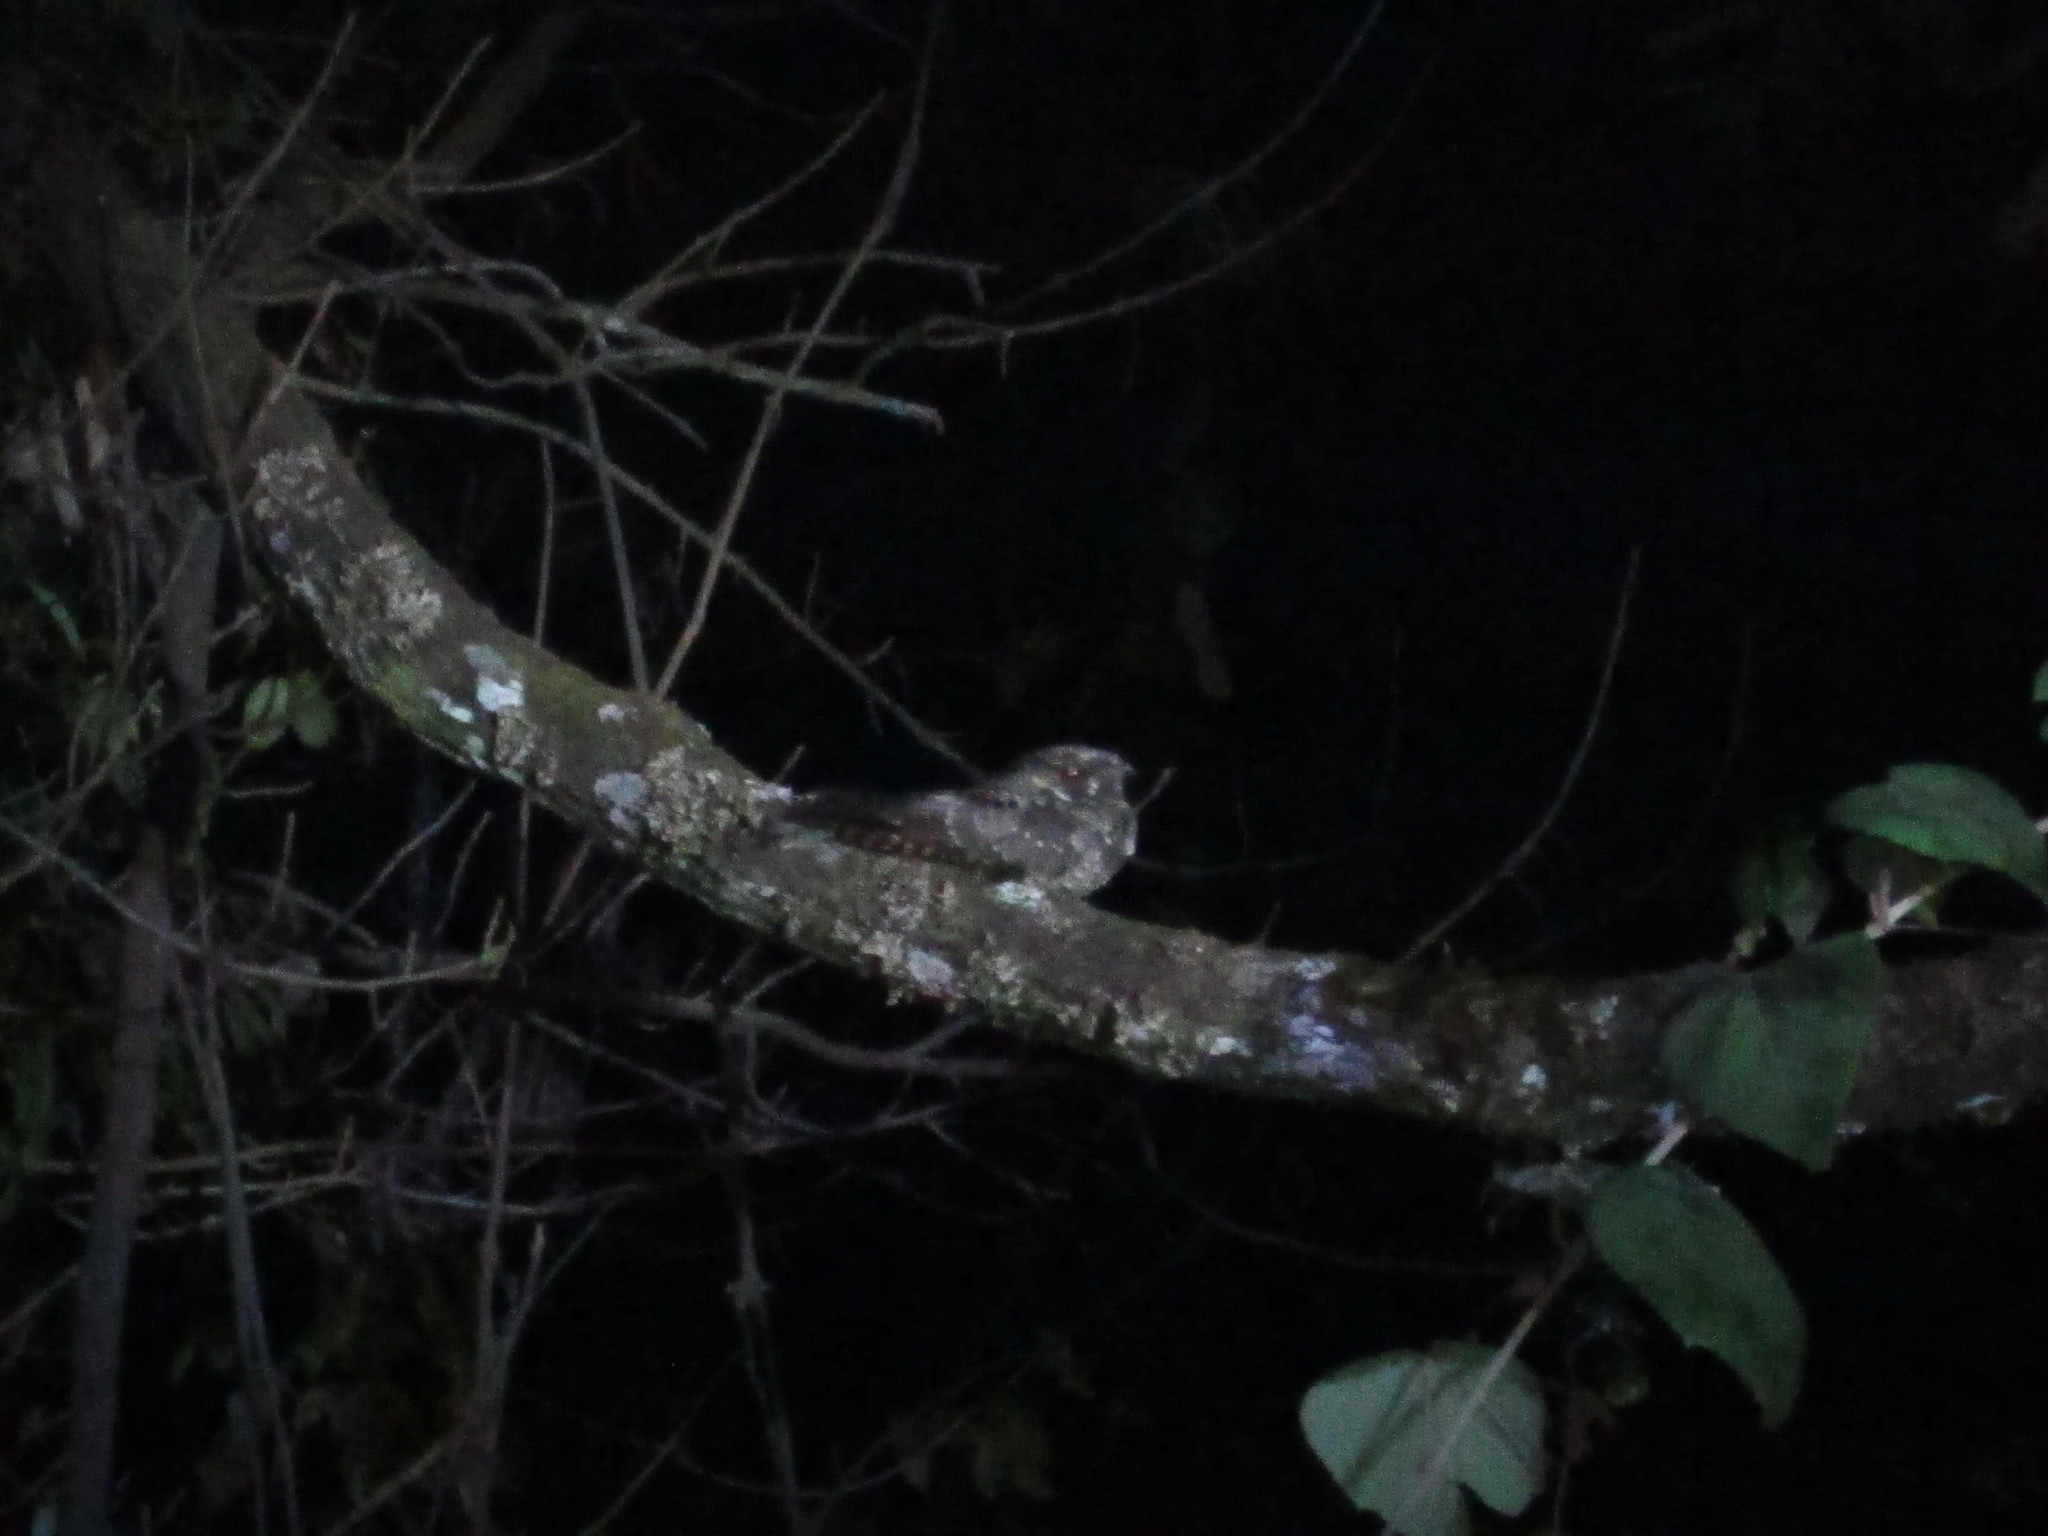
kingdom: Animalia
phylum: Chordata
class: Aves
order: Caprimulgiformes
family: Caprimulgidae
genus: Antrostomus
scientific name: Antrostomus arizonae
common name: Mexican whip-poor-will
